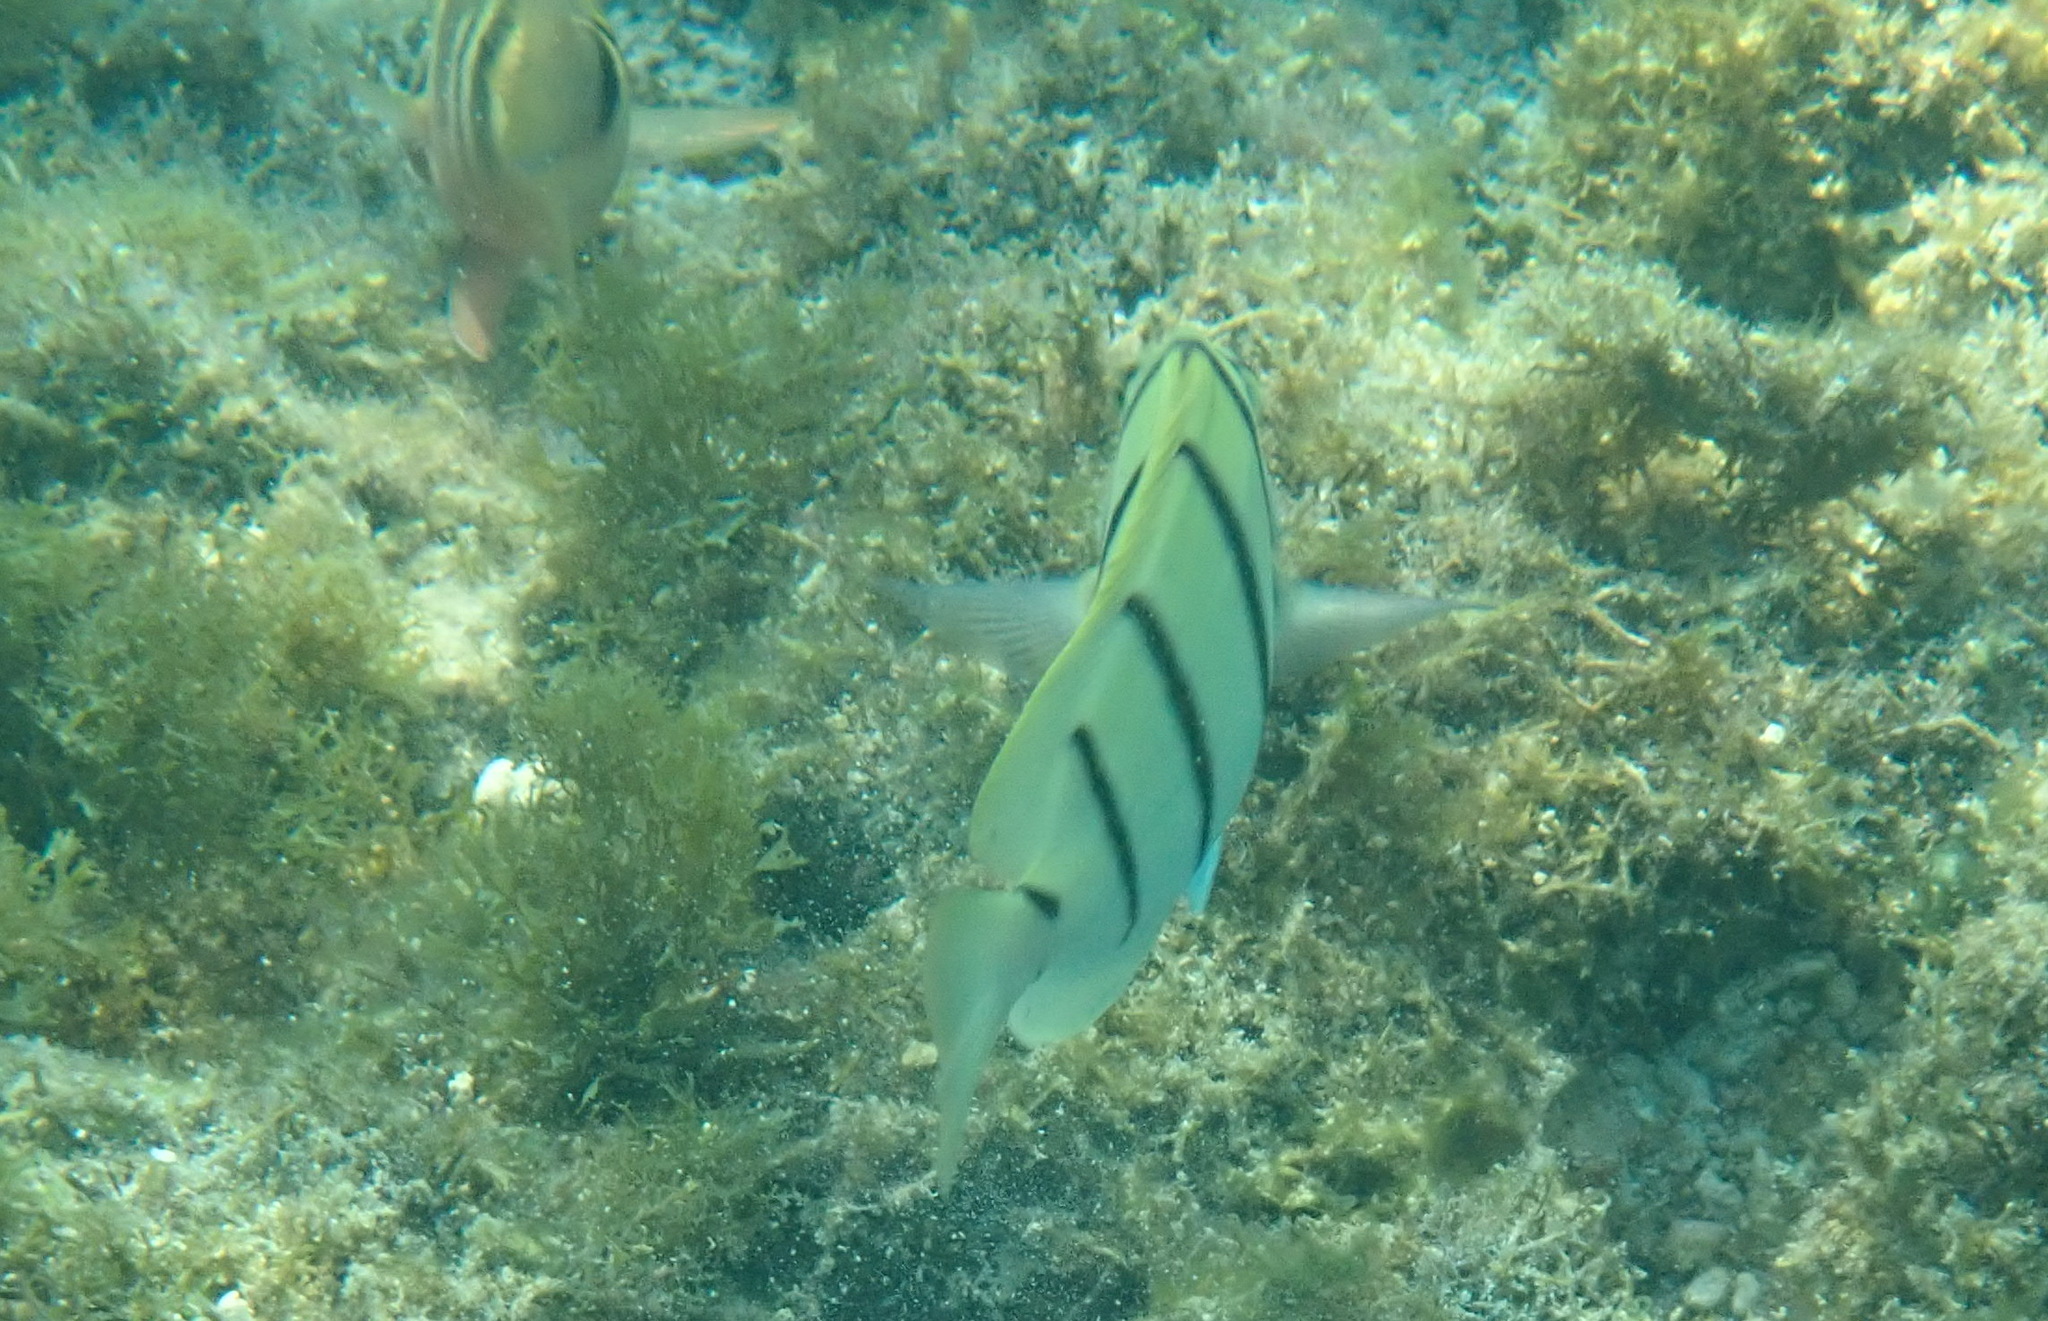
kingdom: Animalia
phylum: Chordata
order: Perciformes
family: Acanthuridae
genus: Acanthurus
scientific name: Acanthurus triostegus
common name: Convict surgeonfish
